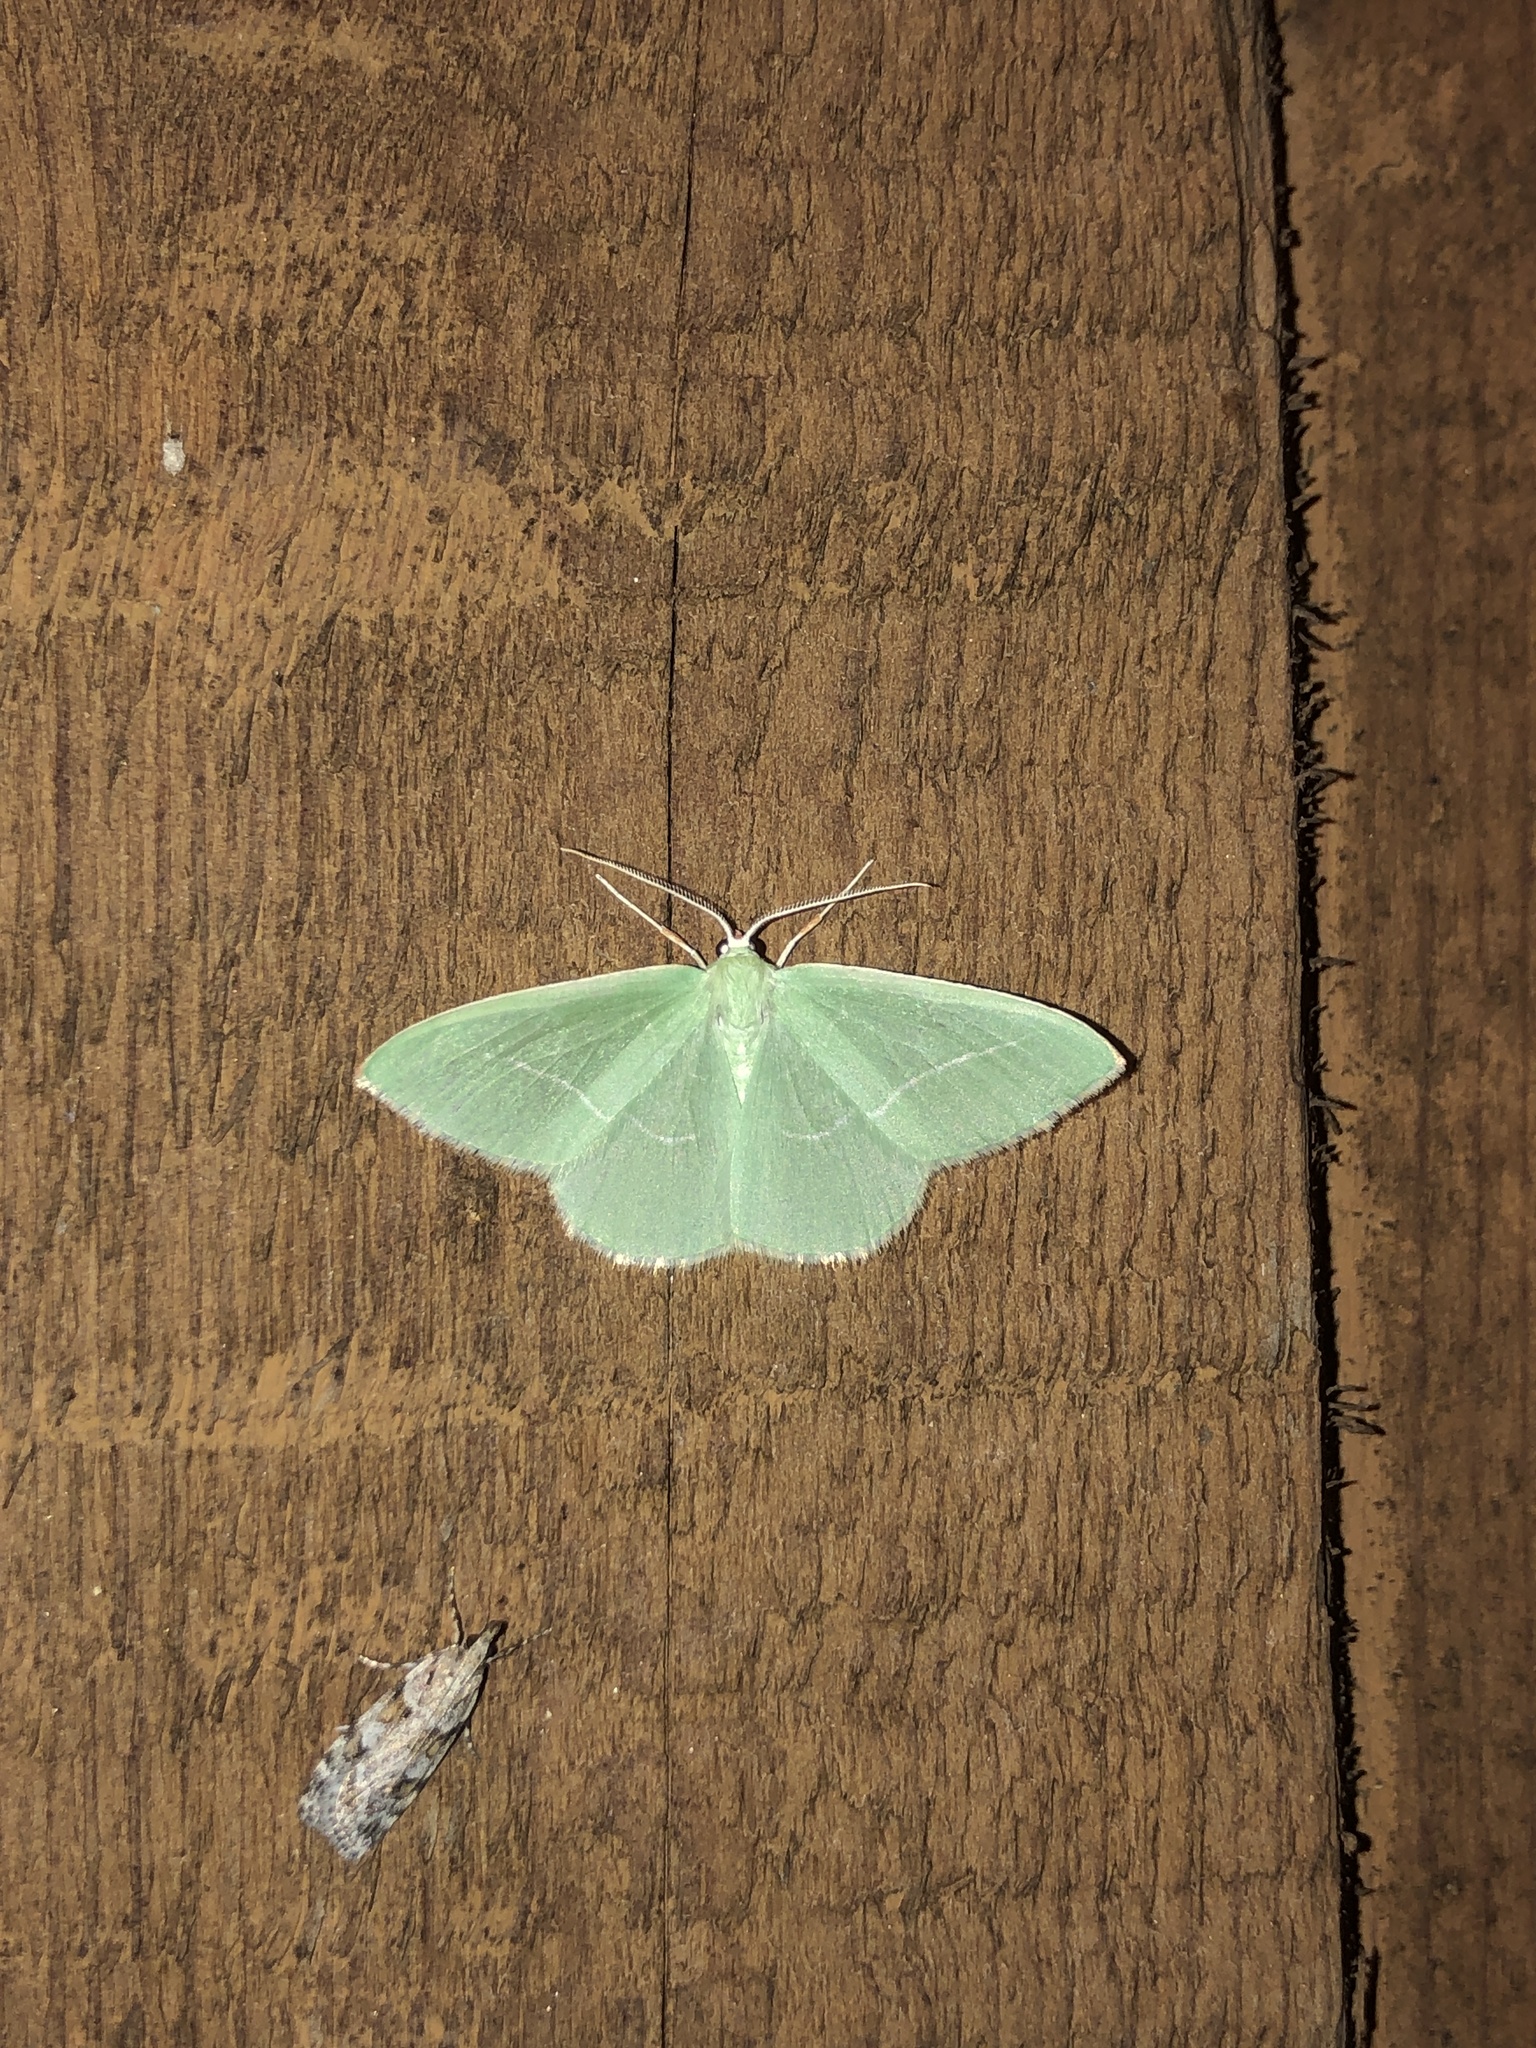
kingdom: Animalia
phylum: Arthropoda
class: Insecta
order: Lepidoptera
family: Geometridae
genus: Nemoria
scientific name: Nemoria unitaria
